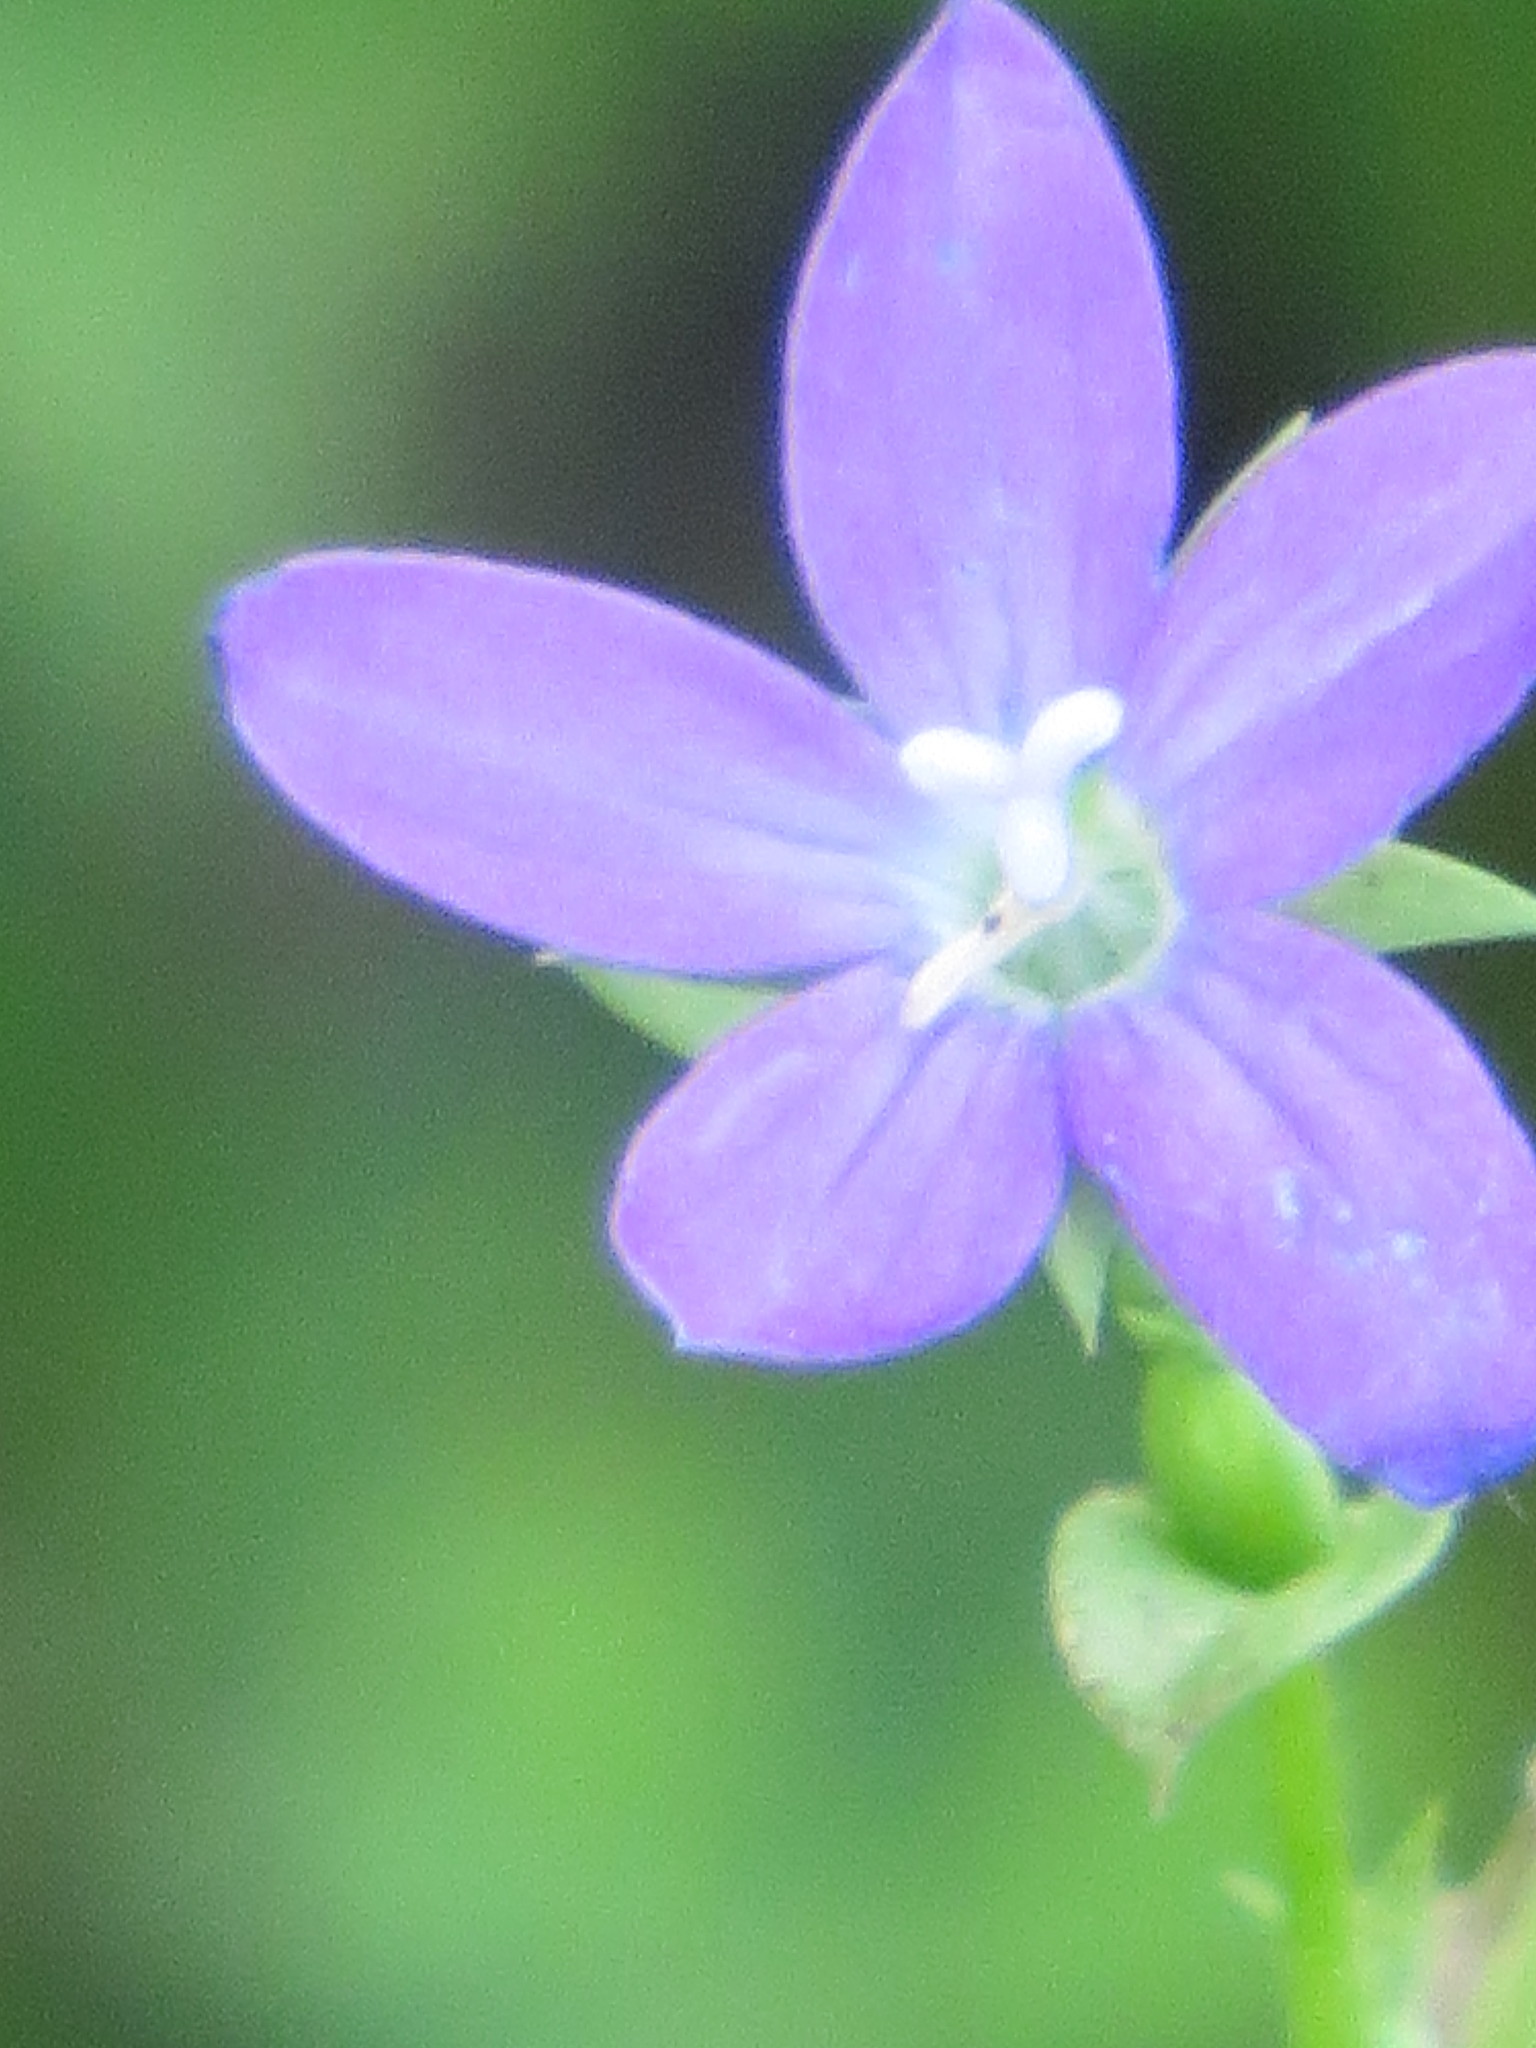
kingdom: Plantae
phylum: Tracheophyta
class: Magnoliopsida
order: Asterales
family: Campanulaceae
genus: Triodanis
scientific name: Triodanis biflora
